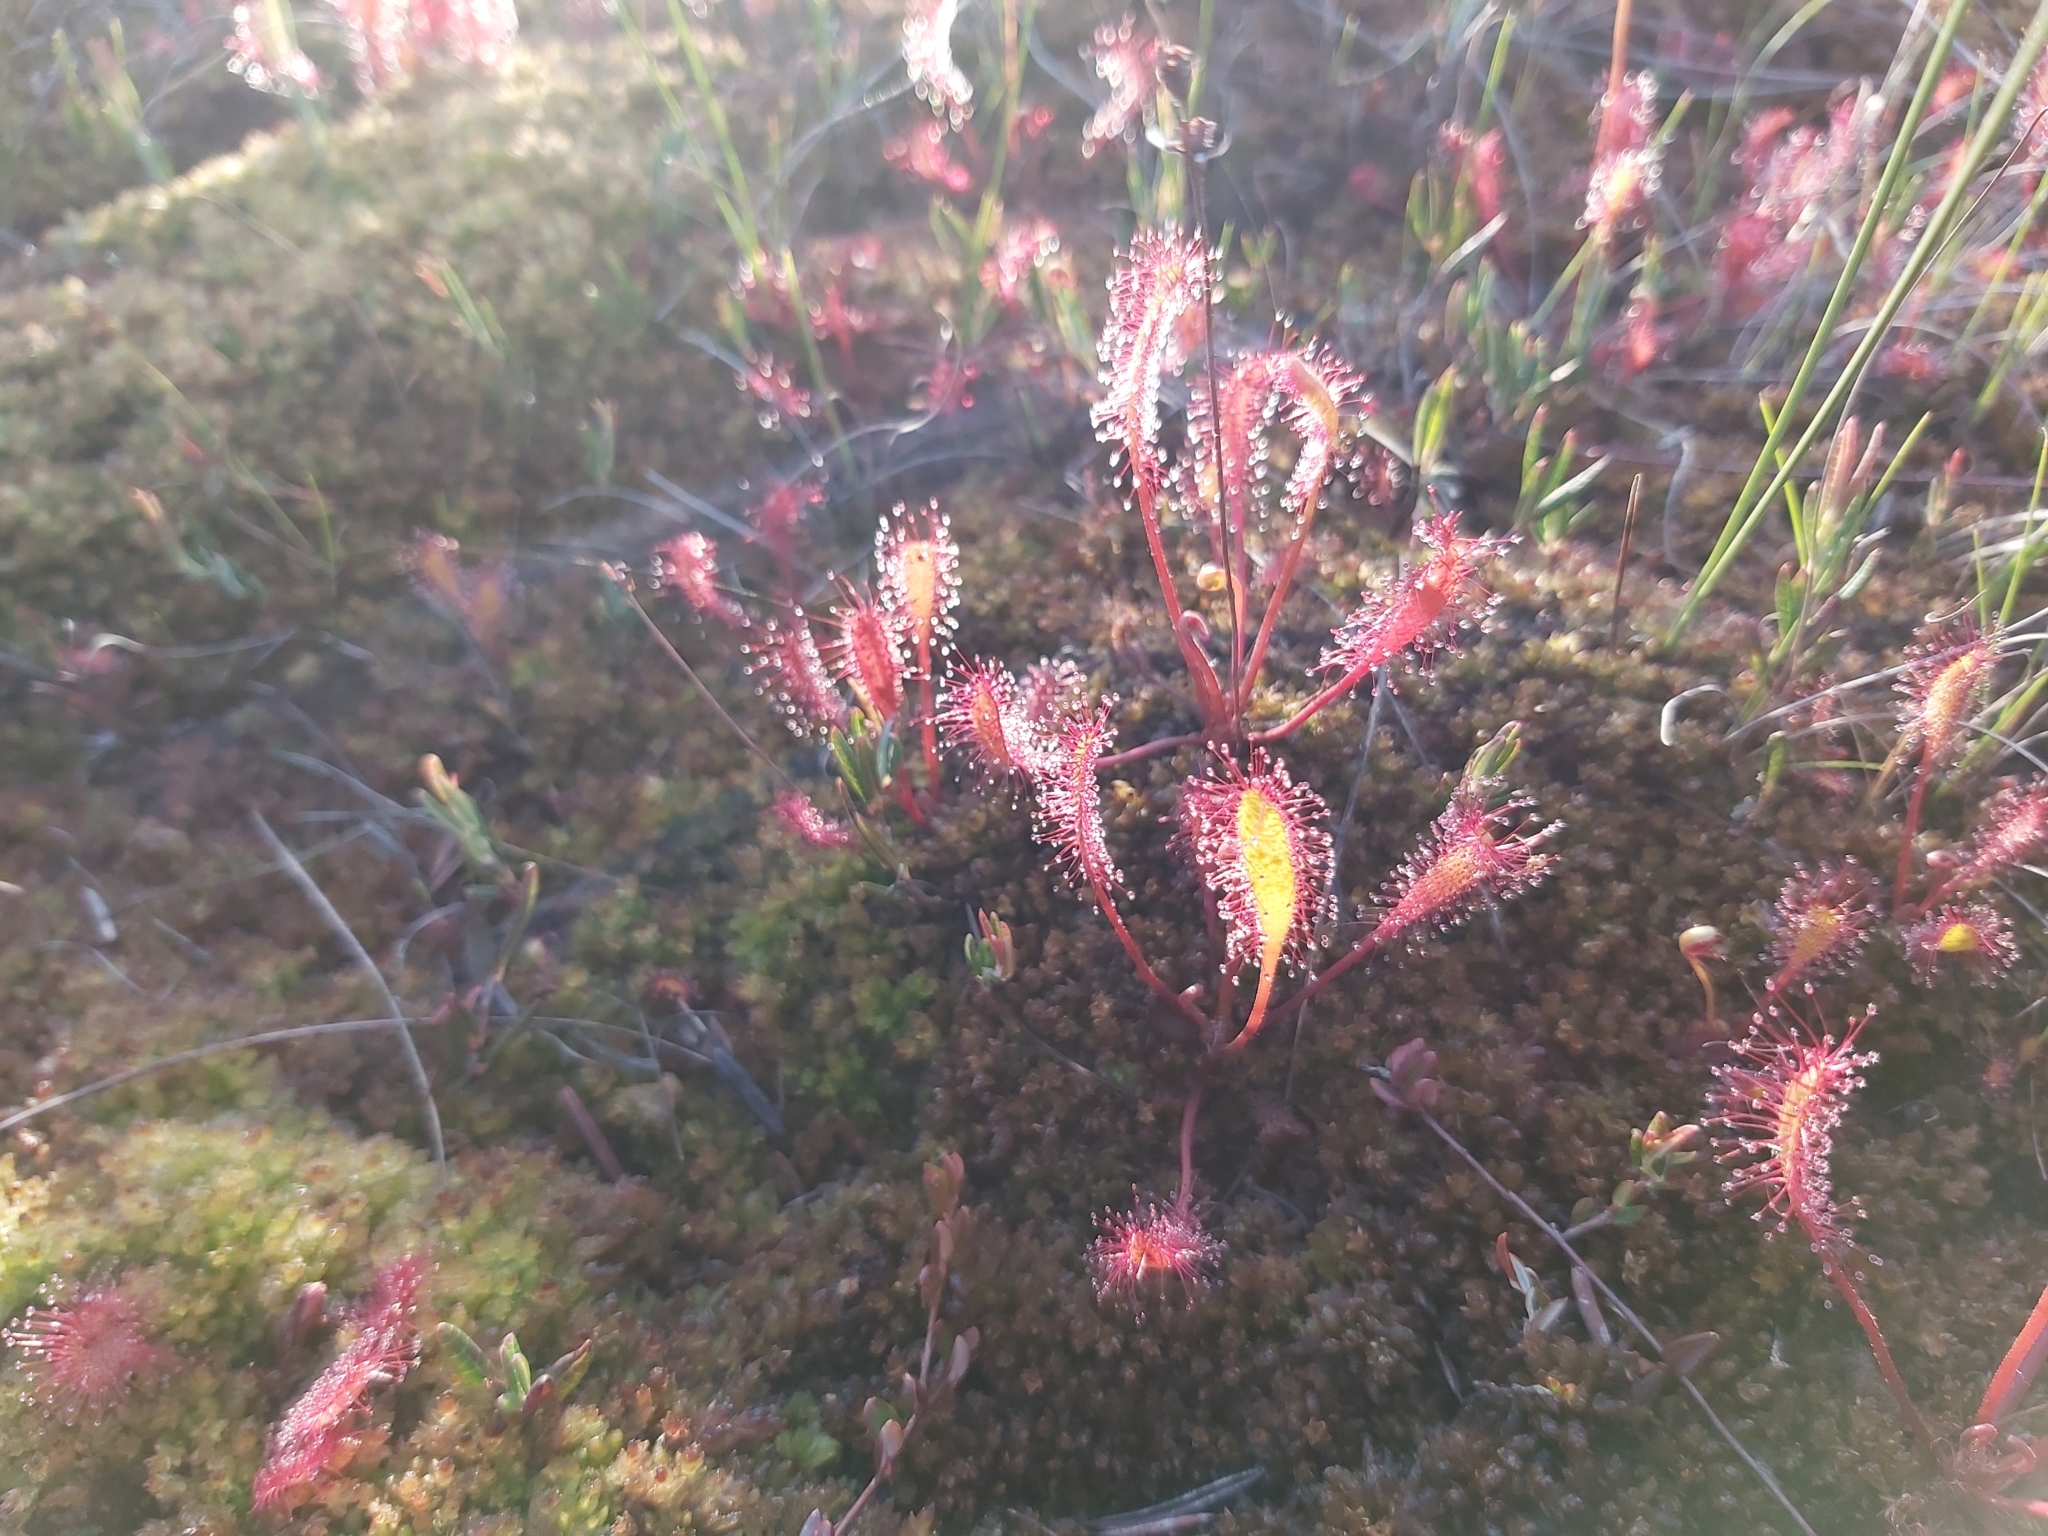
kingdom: Plantae
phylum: Tracheophyta
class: Magnoliopsida
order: Caryophyllales
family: Droseraceae
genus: Drosera
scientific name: Drosera anglica
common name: Great sundew
